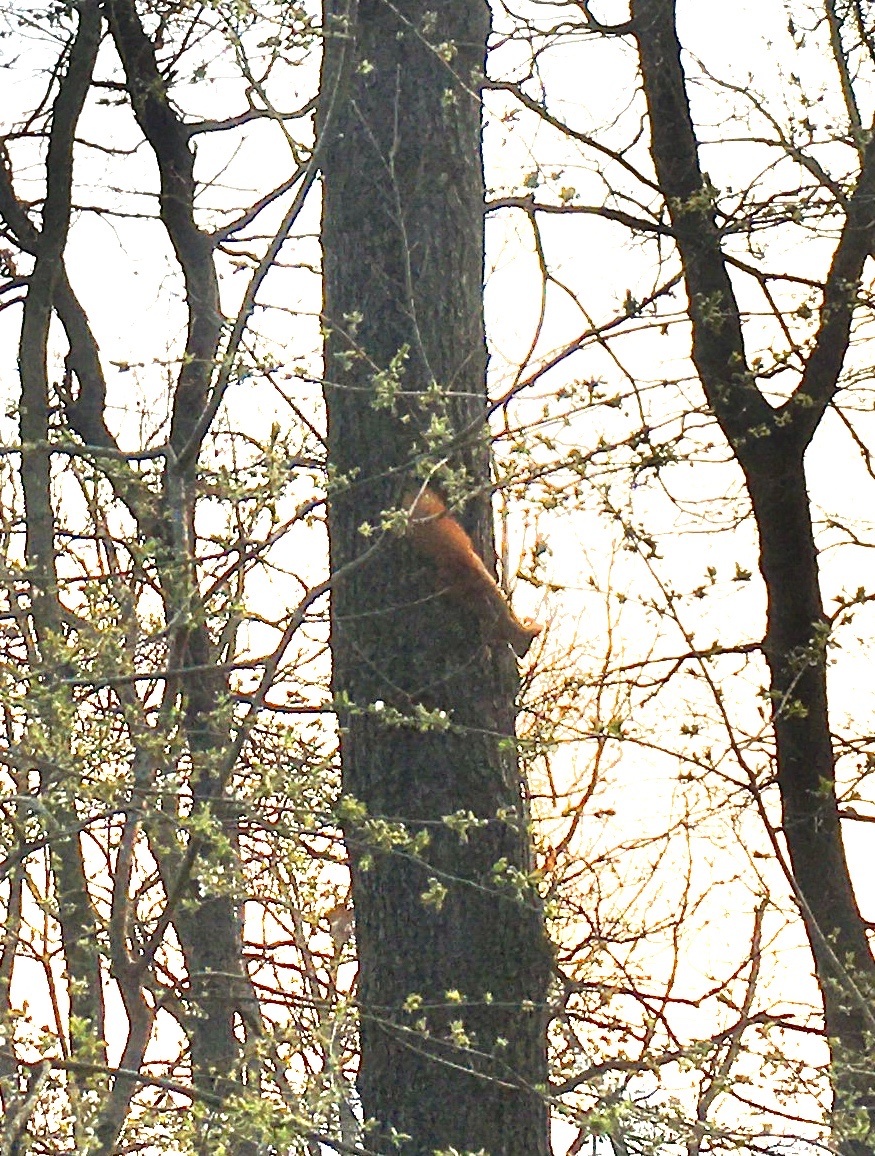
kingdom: Animalia
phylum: Chordata
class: Mammalia
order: Rodentia
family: Sciuridae
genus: Sciurus
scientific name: Sciurus vulgaris
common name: Eurasian red squirrel
